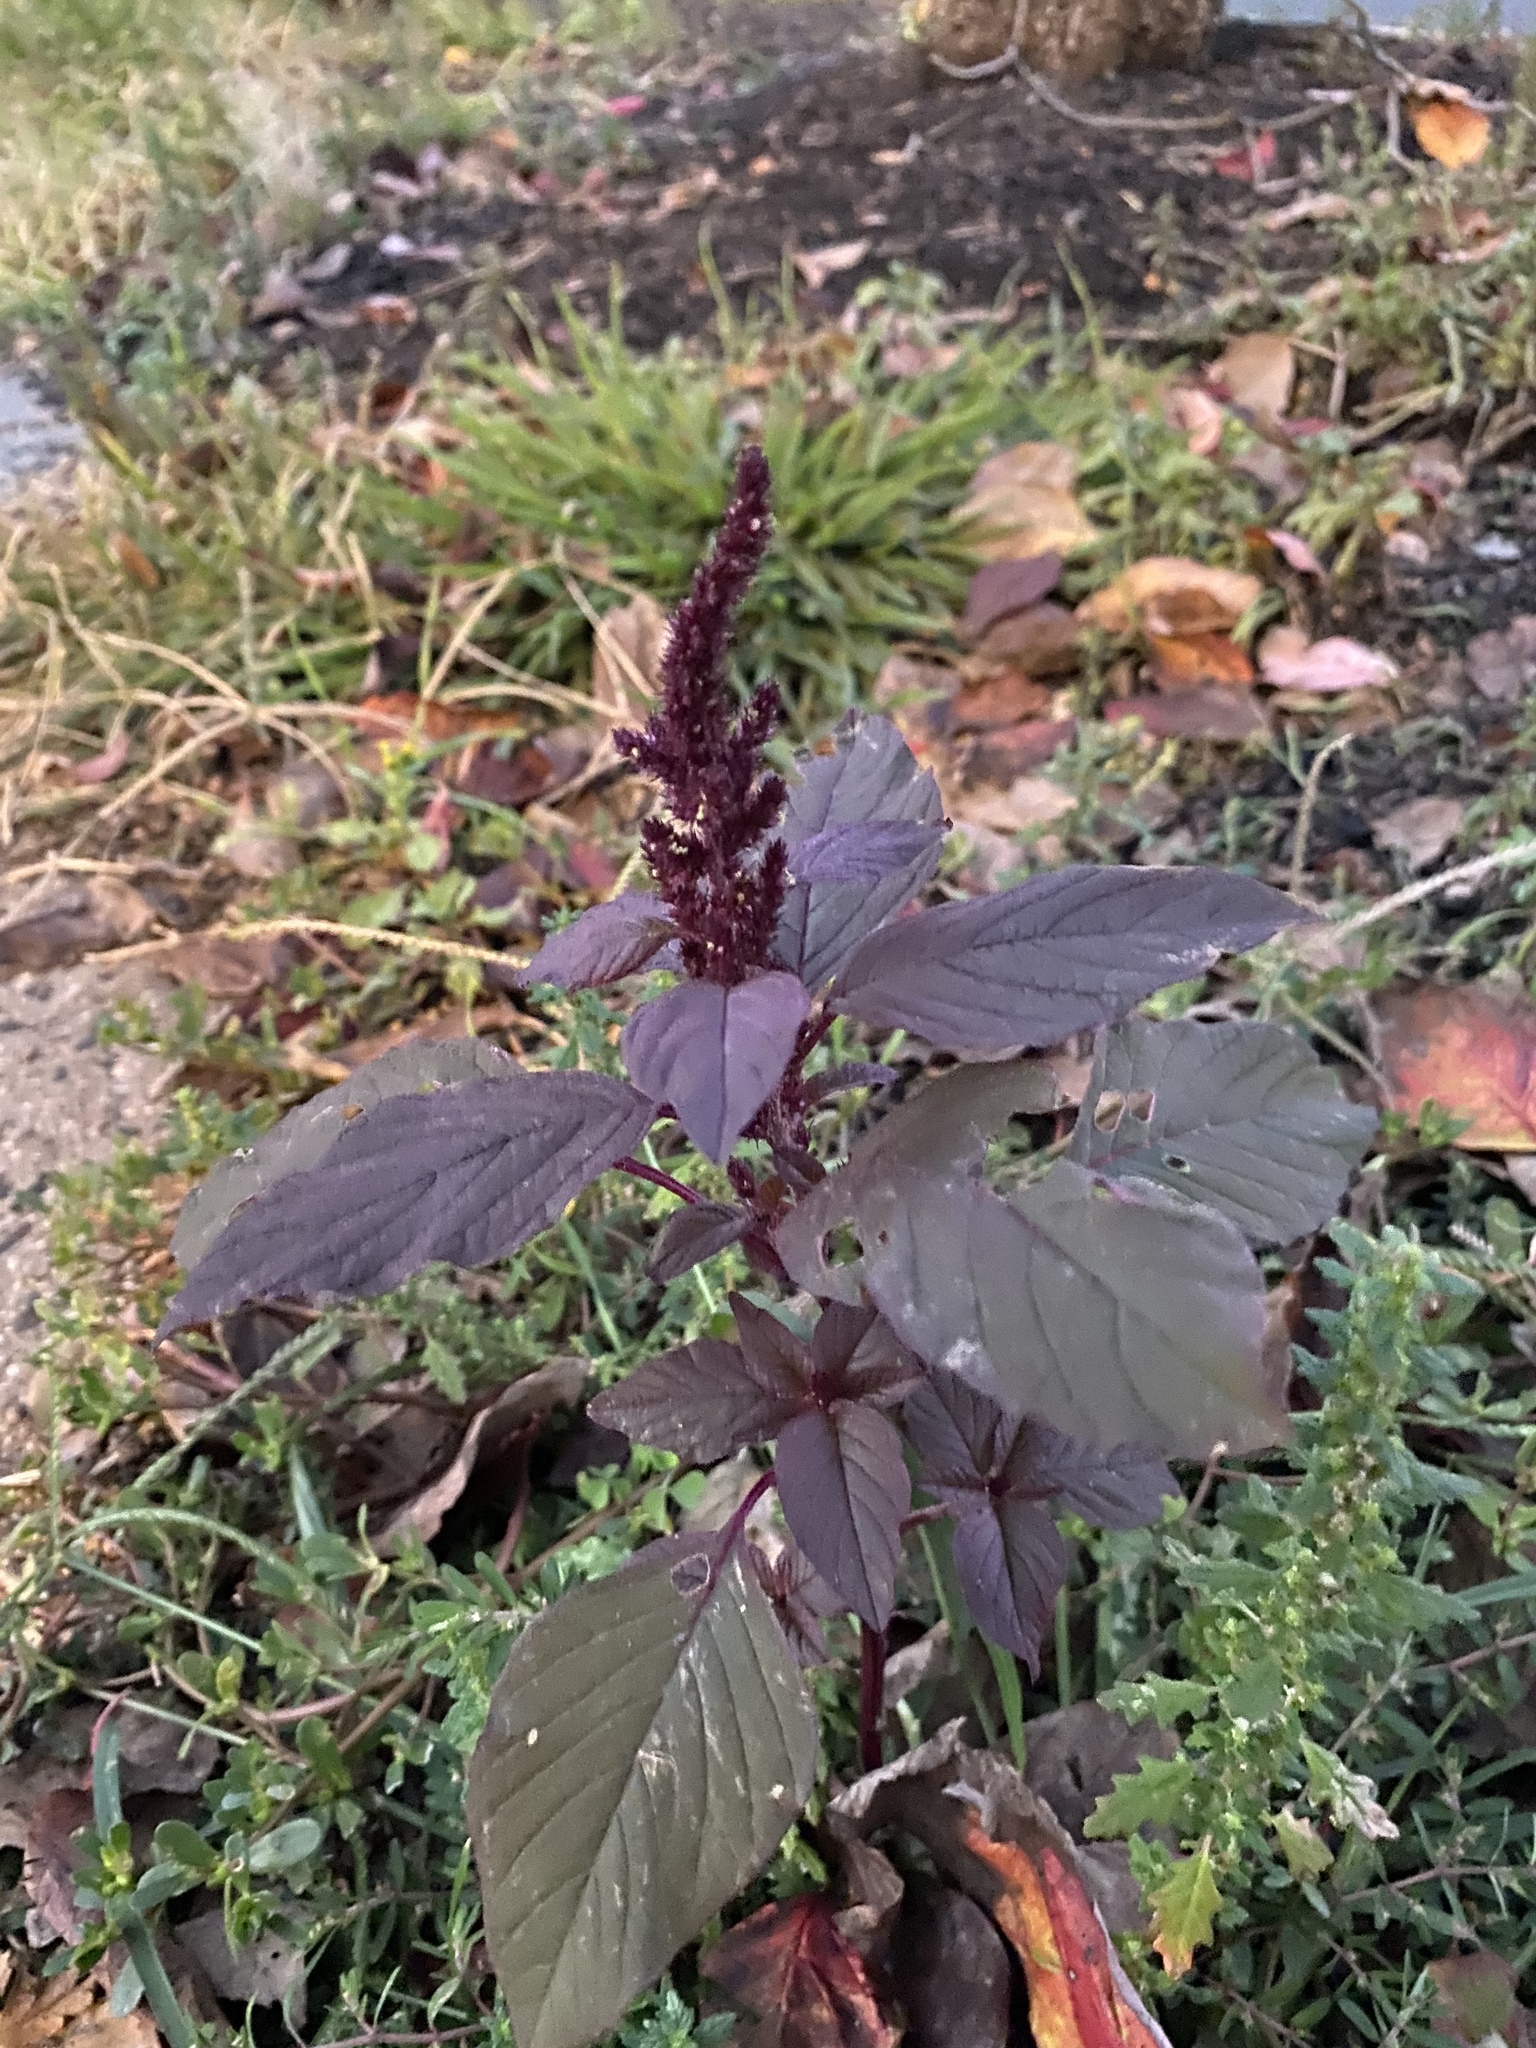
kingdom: Plantae
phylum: Tracheophyta
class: Magnoliopsida
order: Caryophyllales
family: Amaranthaceae
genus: Amaranthus
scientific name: Amaranthus cruentus
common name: Purple amaranth
